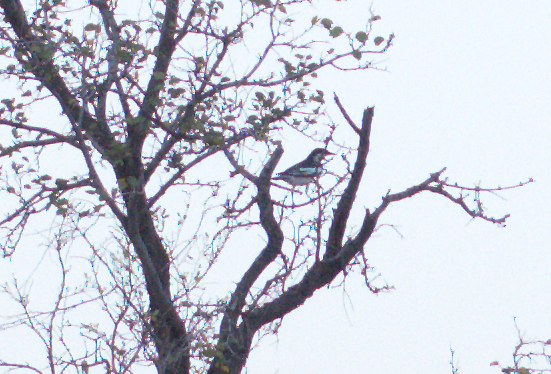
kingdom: Animalia
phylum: Chordata
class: Aves
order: Passeriformes
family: Campephagidae
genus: Lalage
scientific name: Lalage tricolor
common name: White-winged triller
